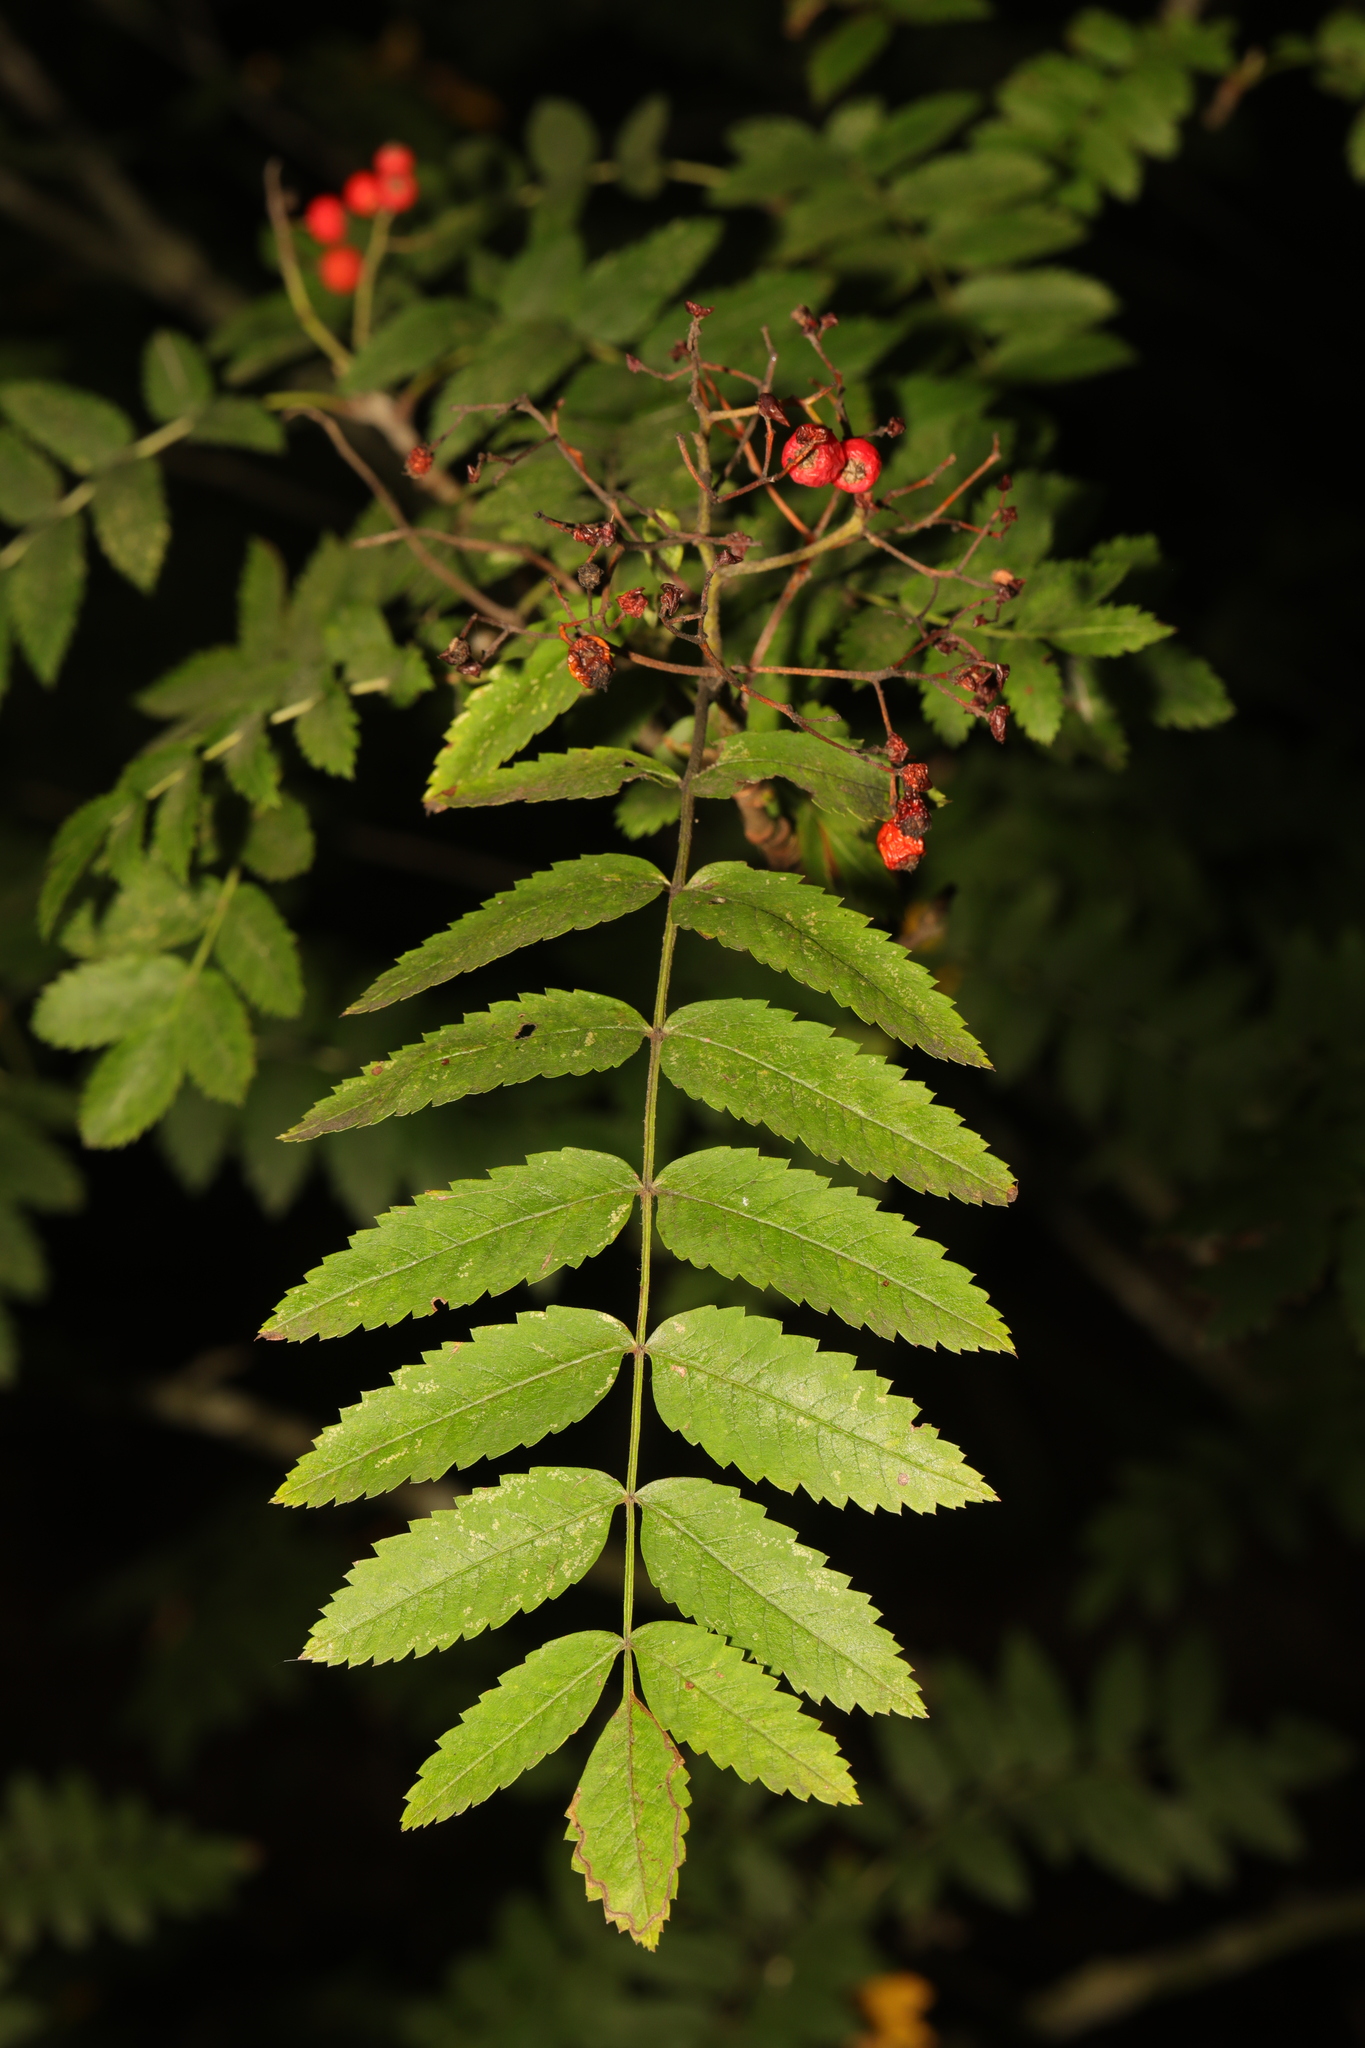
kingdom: Plantae
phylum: Tracheophyta
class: Magnoliopsida
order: Rosales
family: Rosaceae
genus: Sorbus
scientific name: Sorbus aucuparia
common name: Rowan
